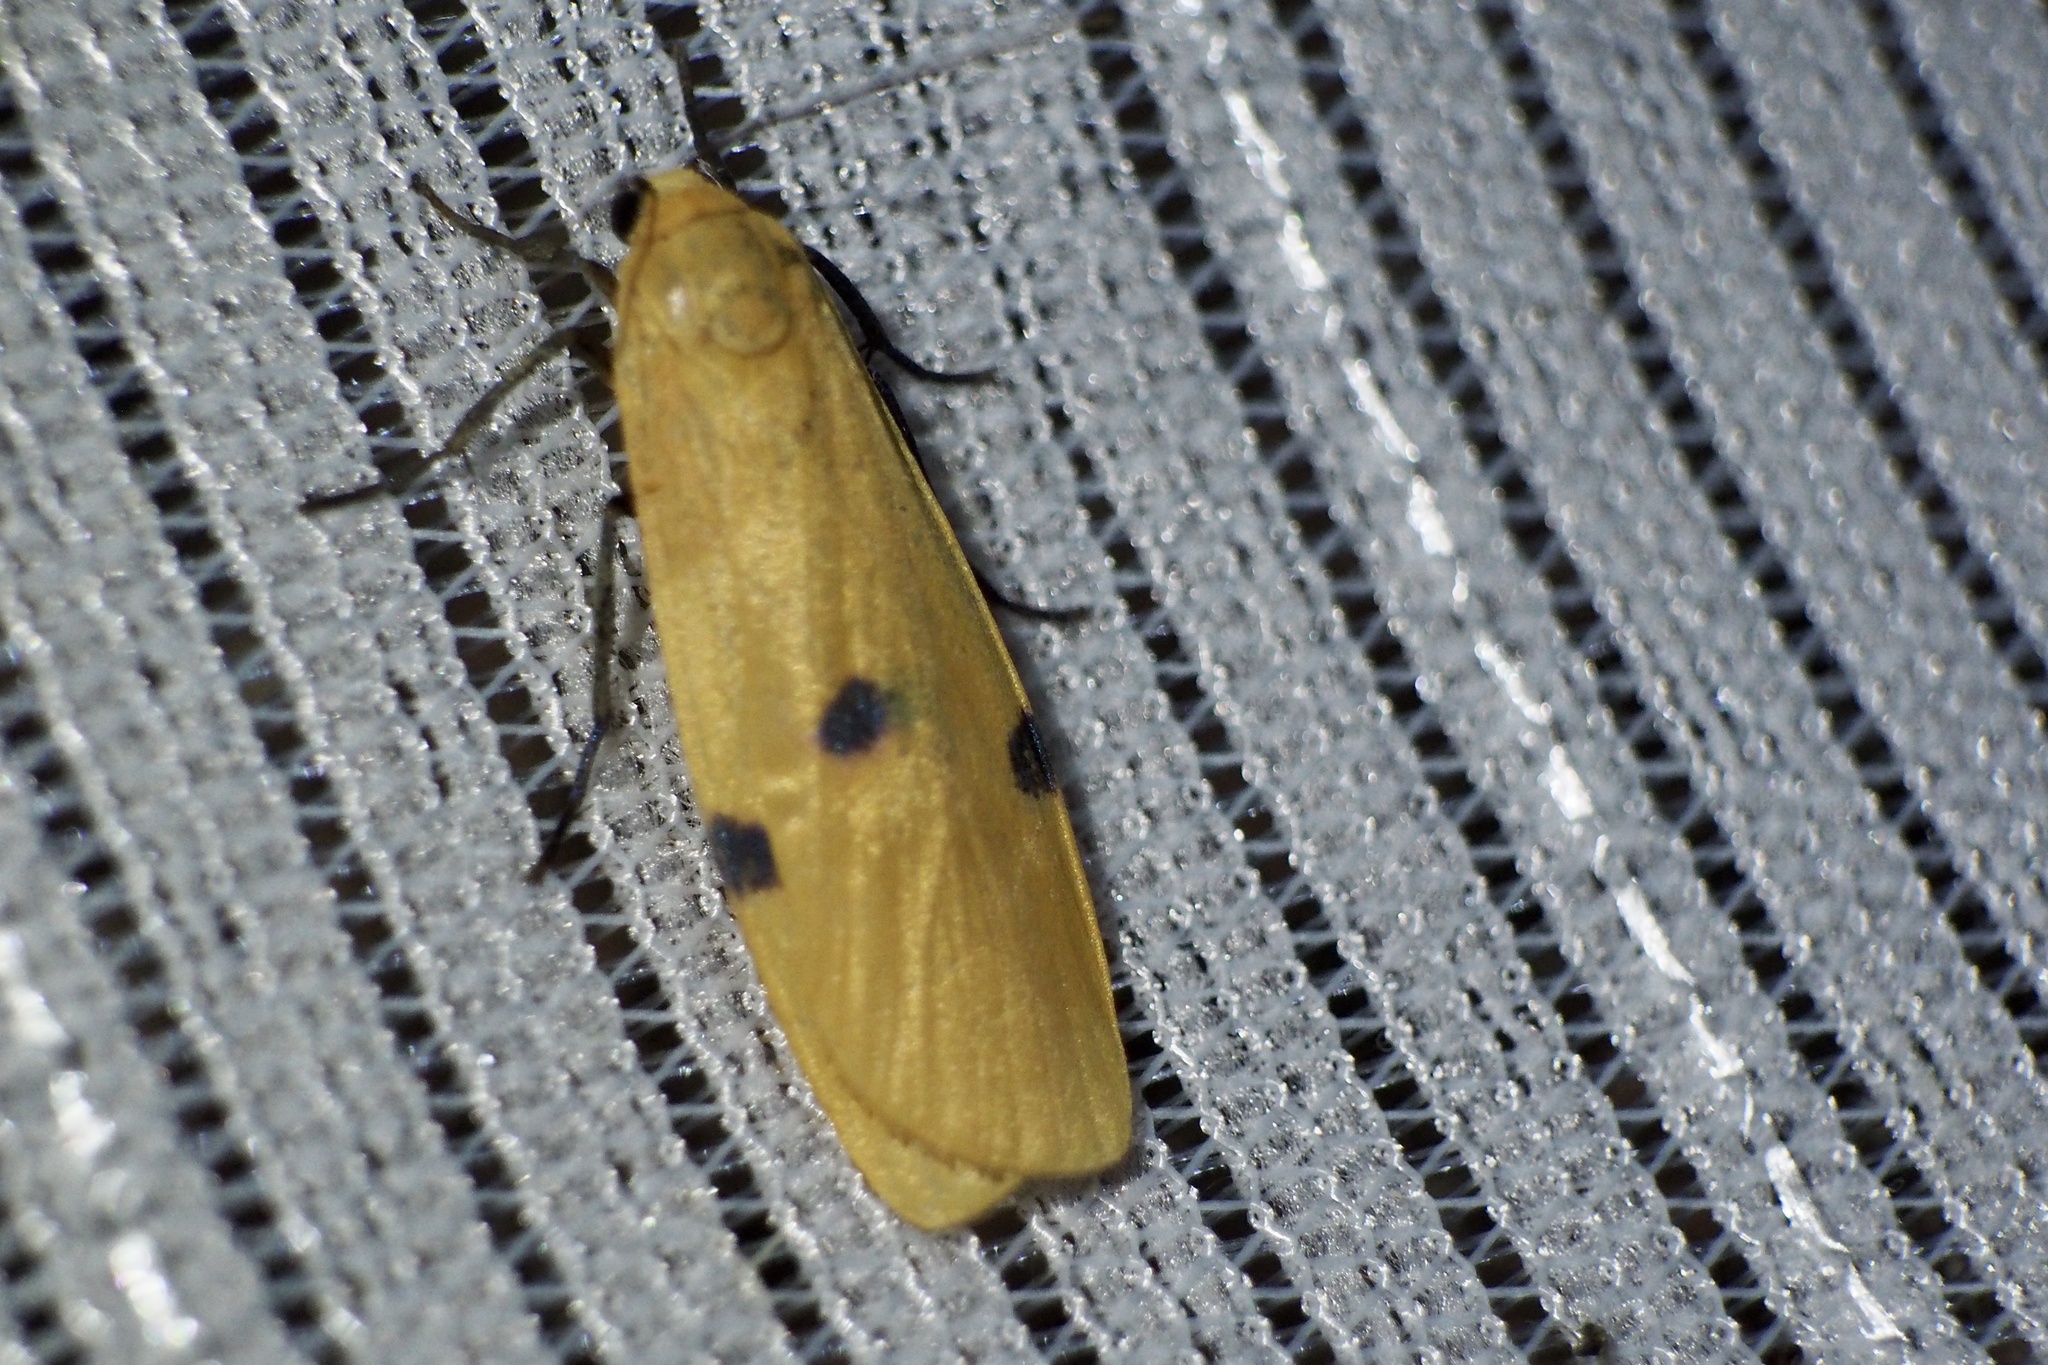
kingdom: Animalia
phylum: Arthropoda
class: Insecta
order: Lepidoptera
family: Erebidae
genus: Lithosia
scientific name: Lithosia quadra
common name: Four-spotted footman
